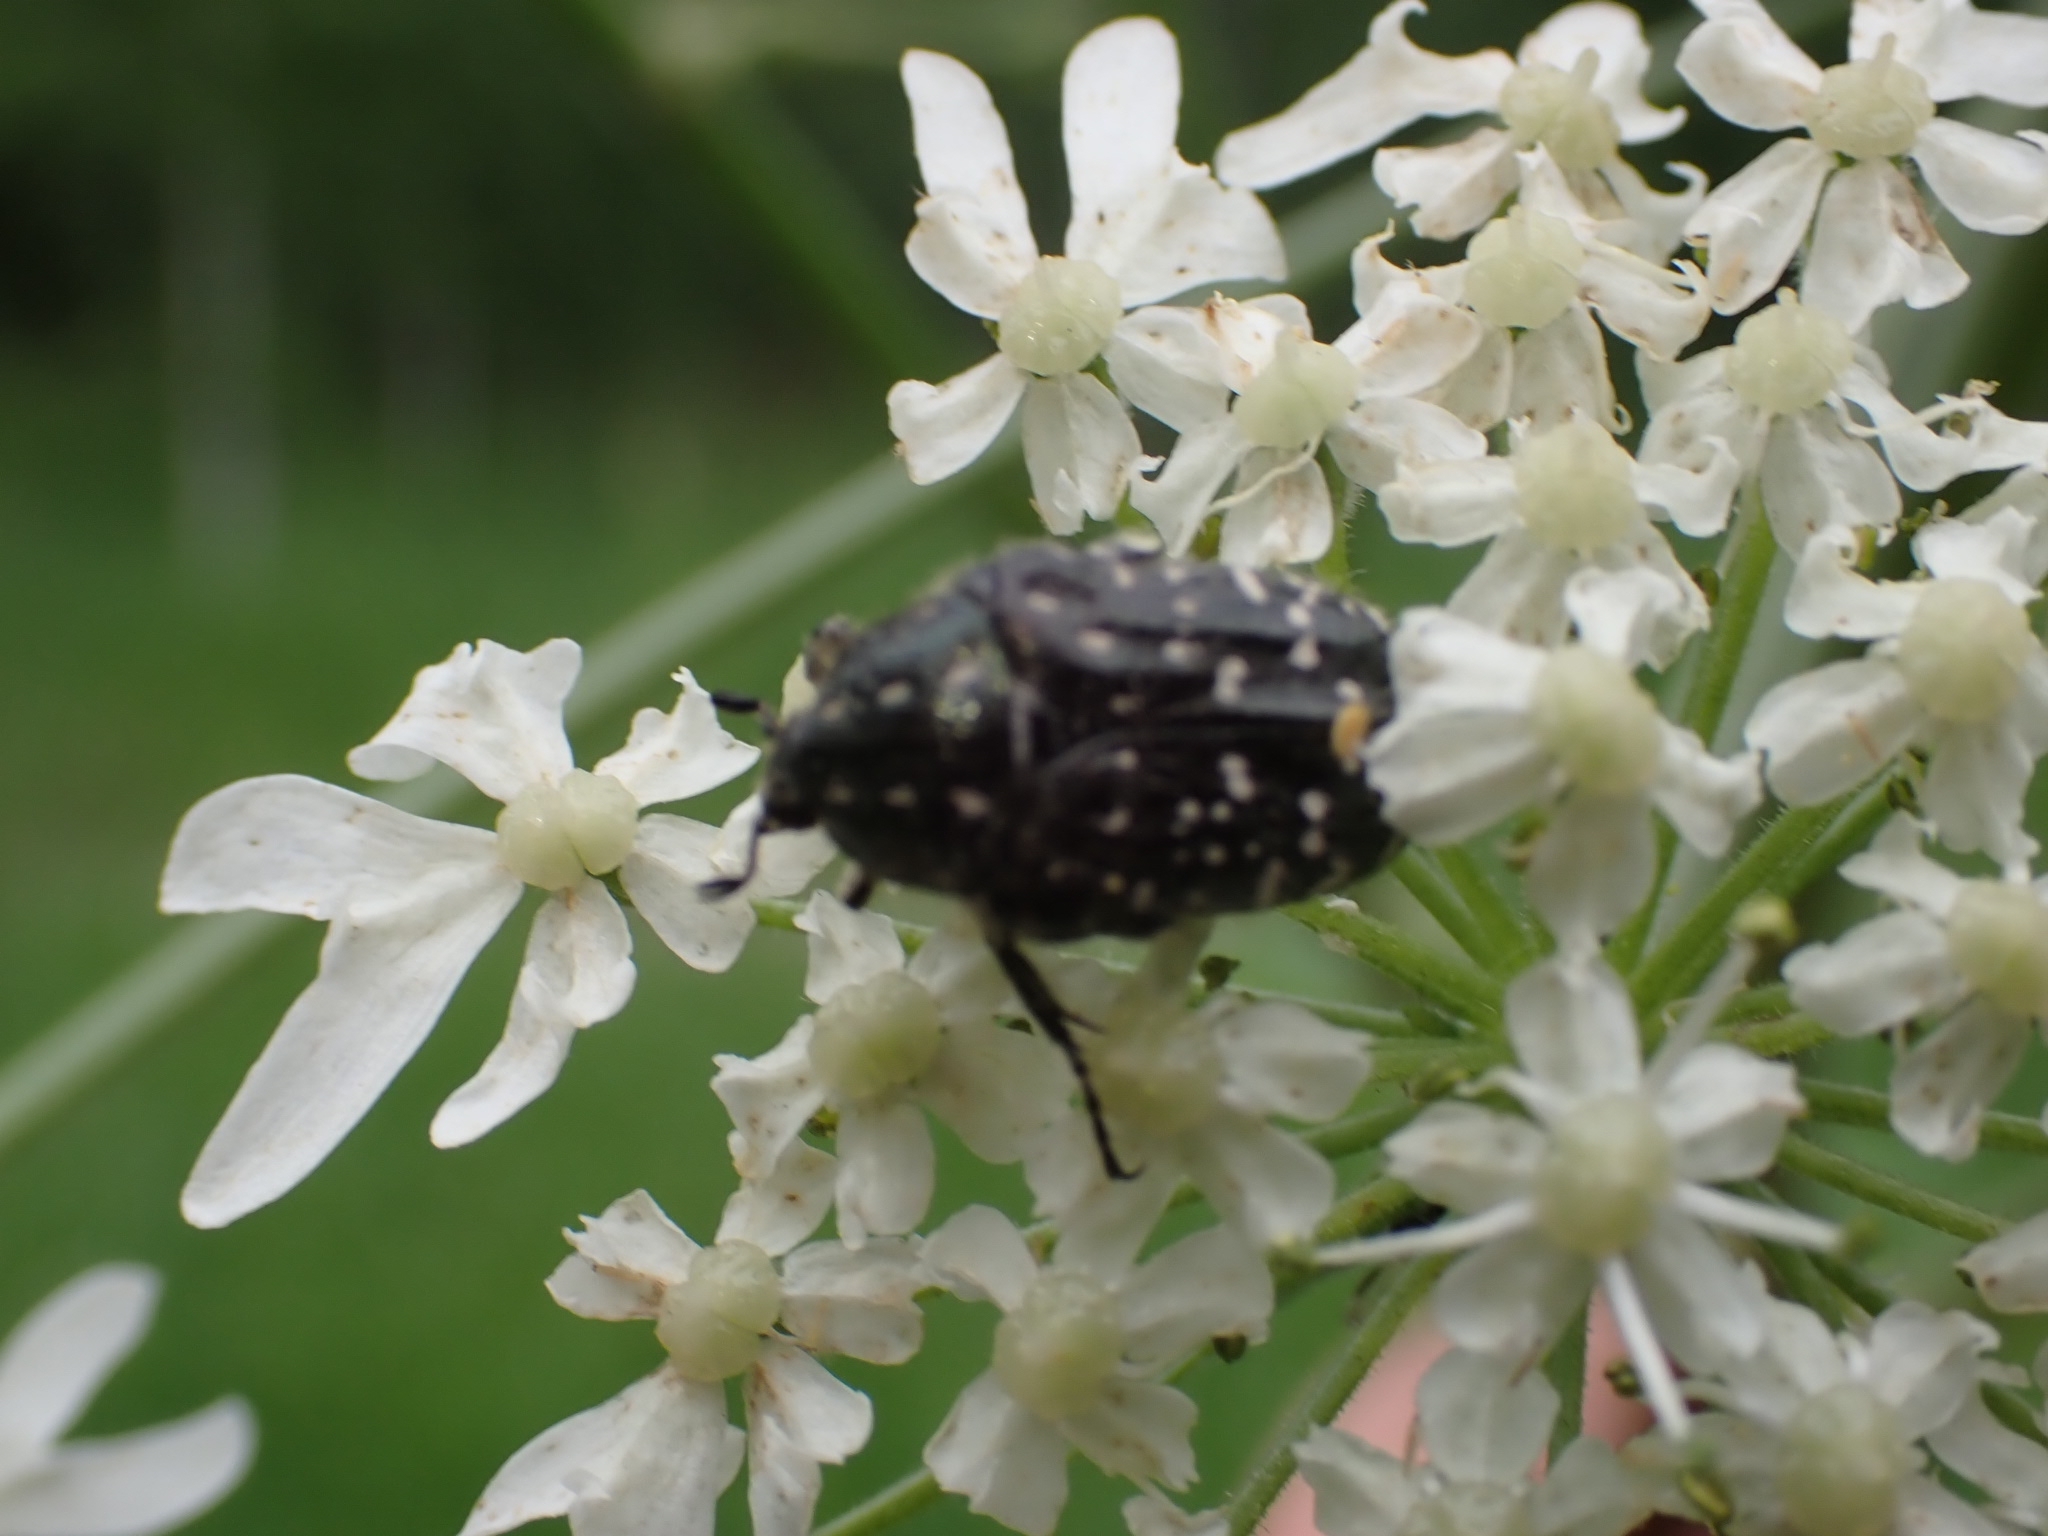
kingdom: Animalia
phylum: Arthropoda
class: Insecta
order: Coleoptera
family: Scarabaeidae
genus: Oxythyrea
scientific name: Oxythyrea funesta
